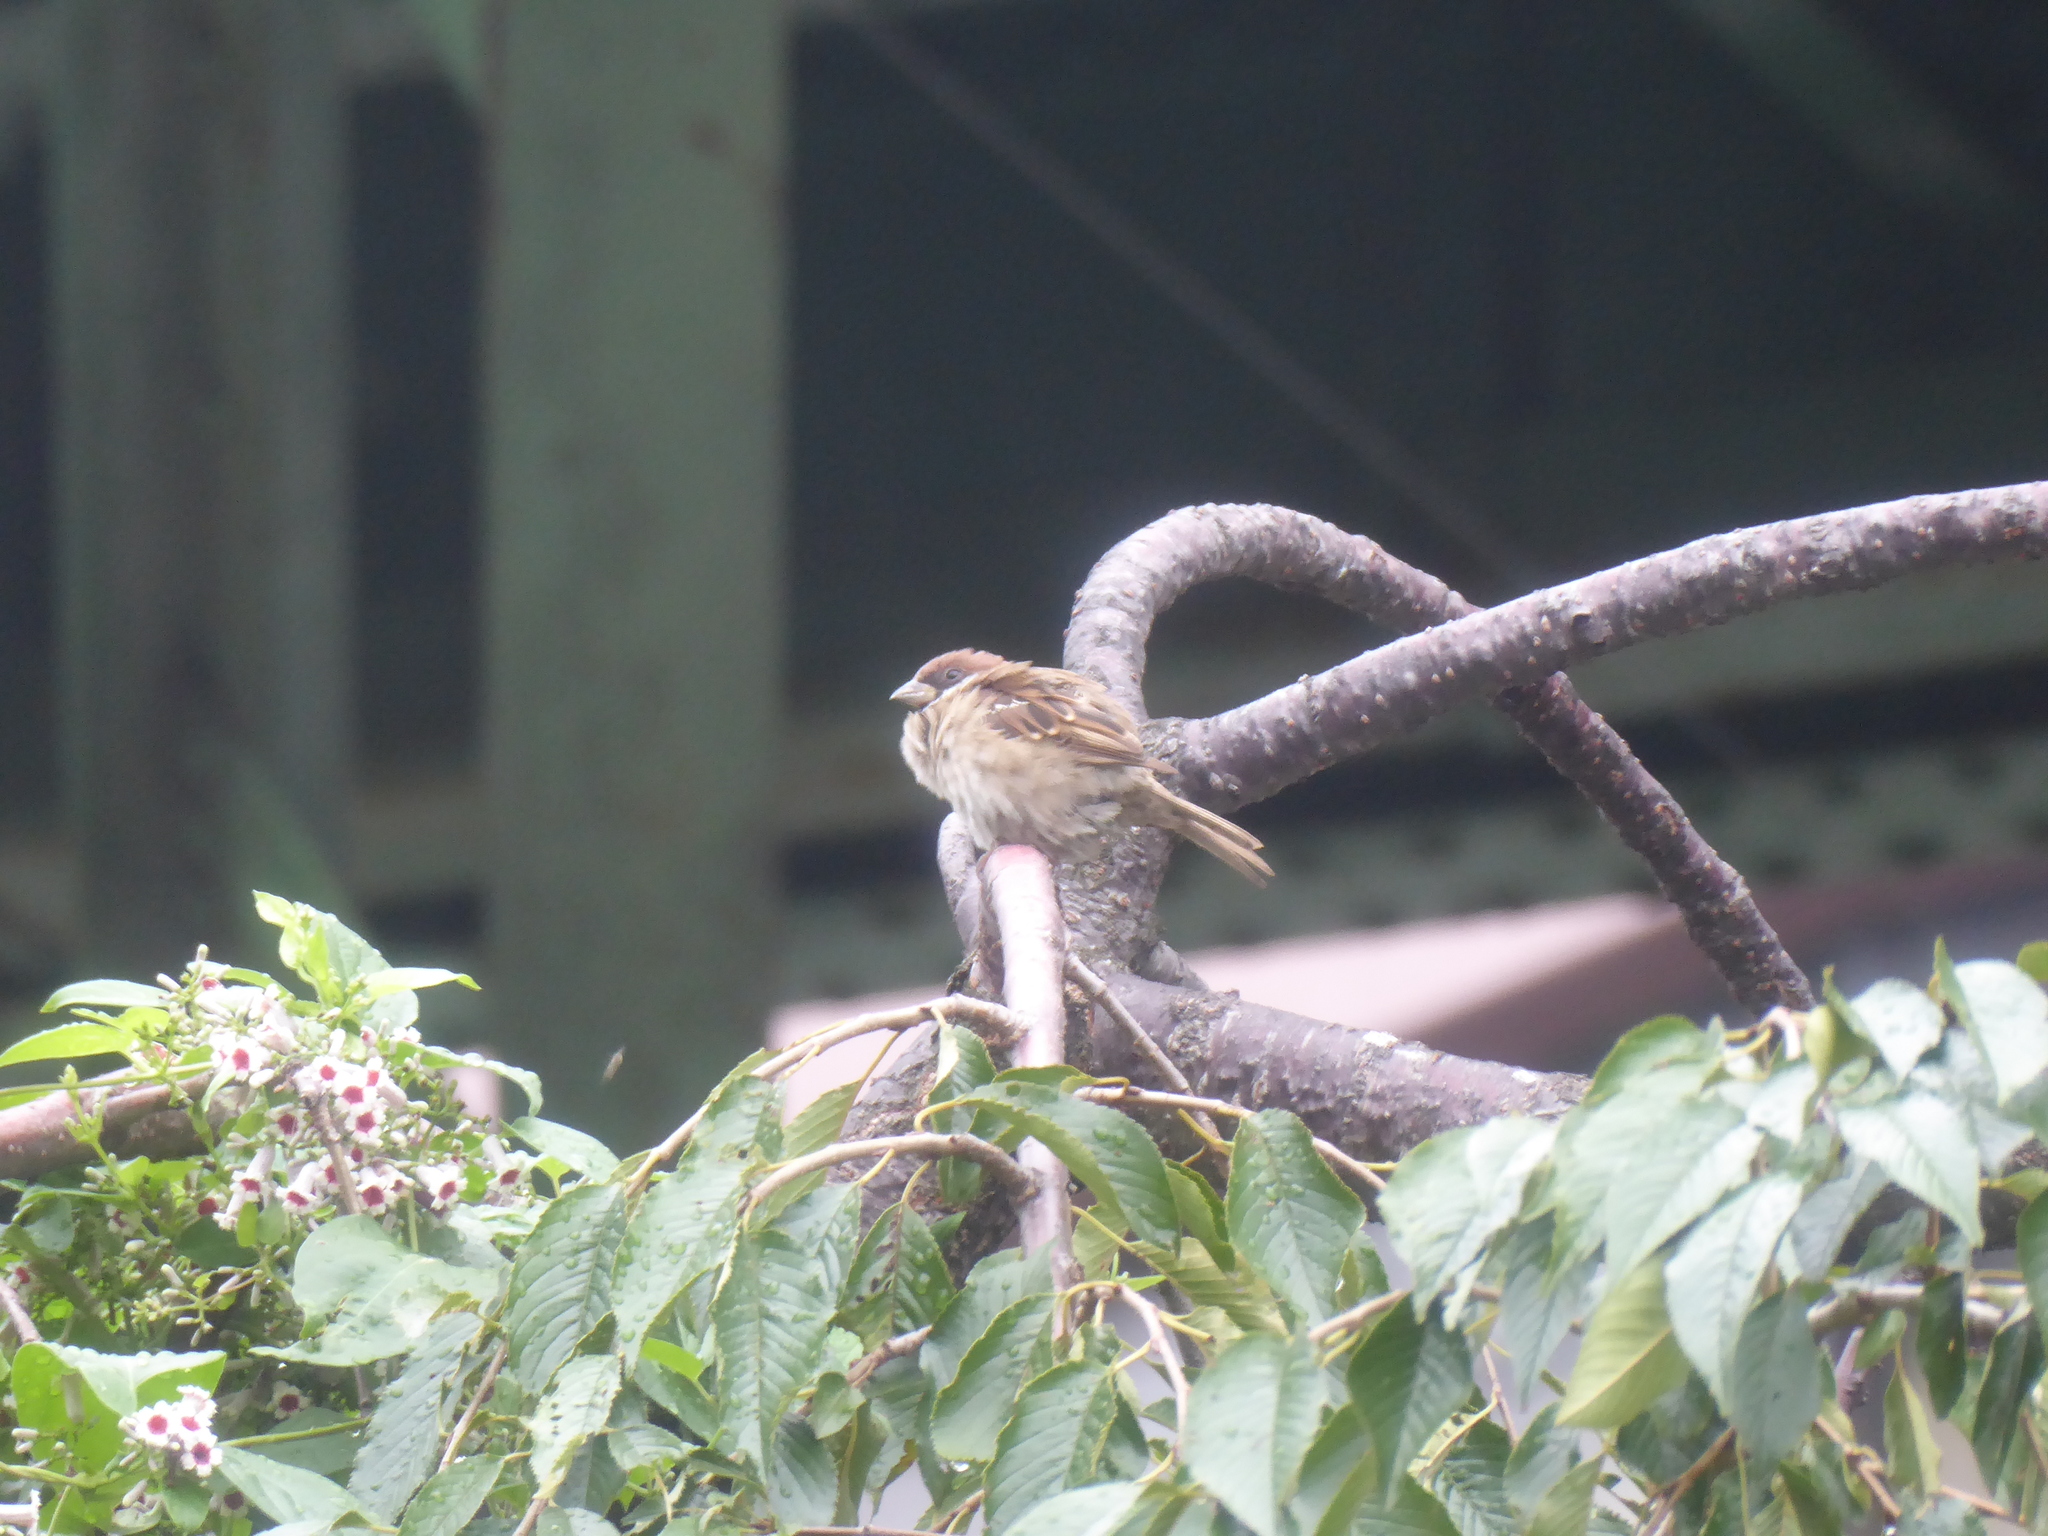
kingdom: Animalia
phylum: Chordata
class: Aves
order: Passeriformes
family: Passeridae
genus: Passer
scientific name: Passer montanus
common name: Eurasian tree sparrow
